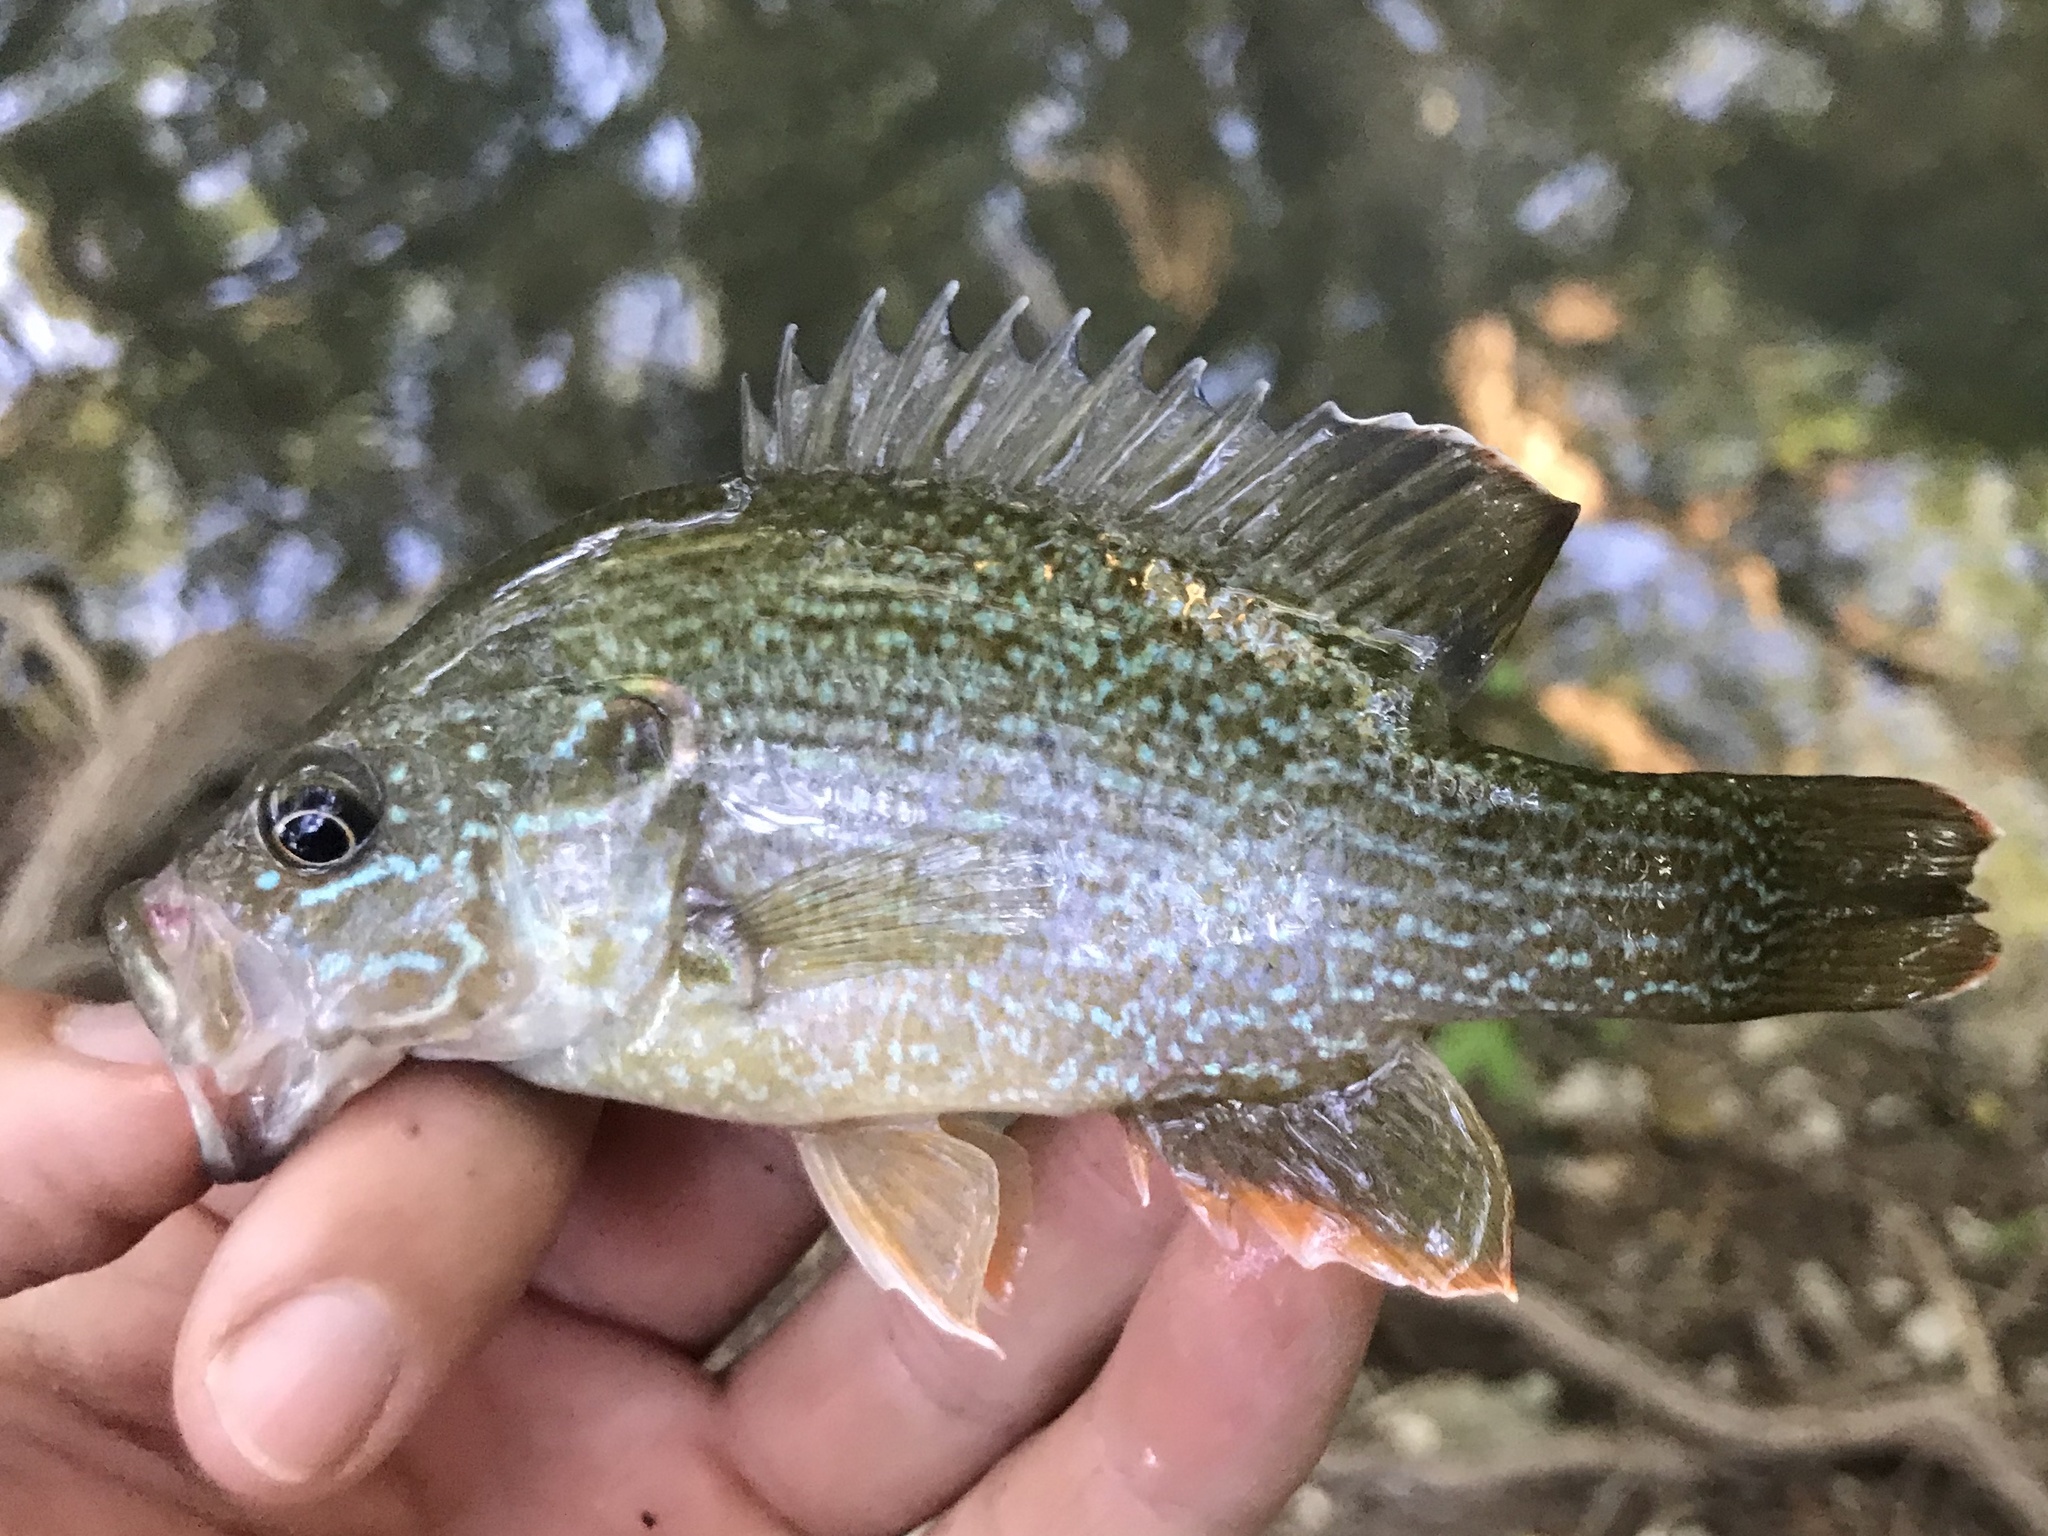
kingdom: Animalia
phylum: Chordata
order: Perciformes
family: Centrarchidae
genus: Lepomis
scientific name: Lepomis cyanellus
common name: Green sunfish
